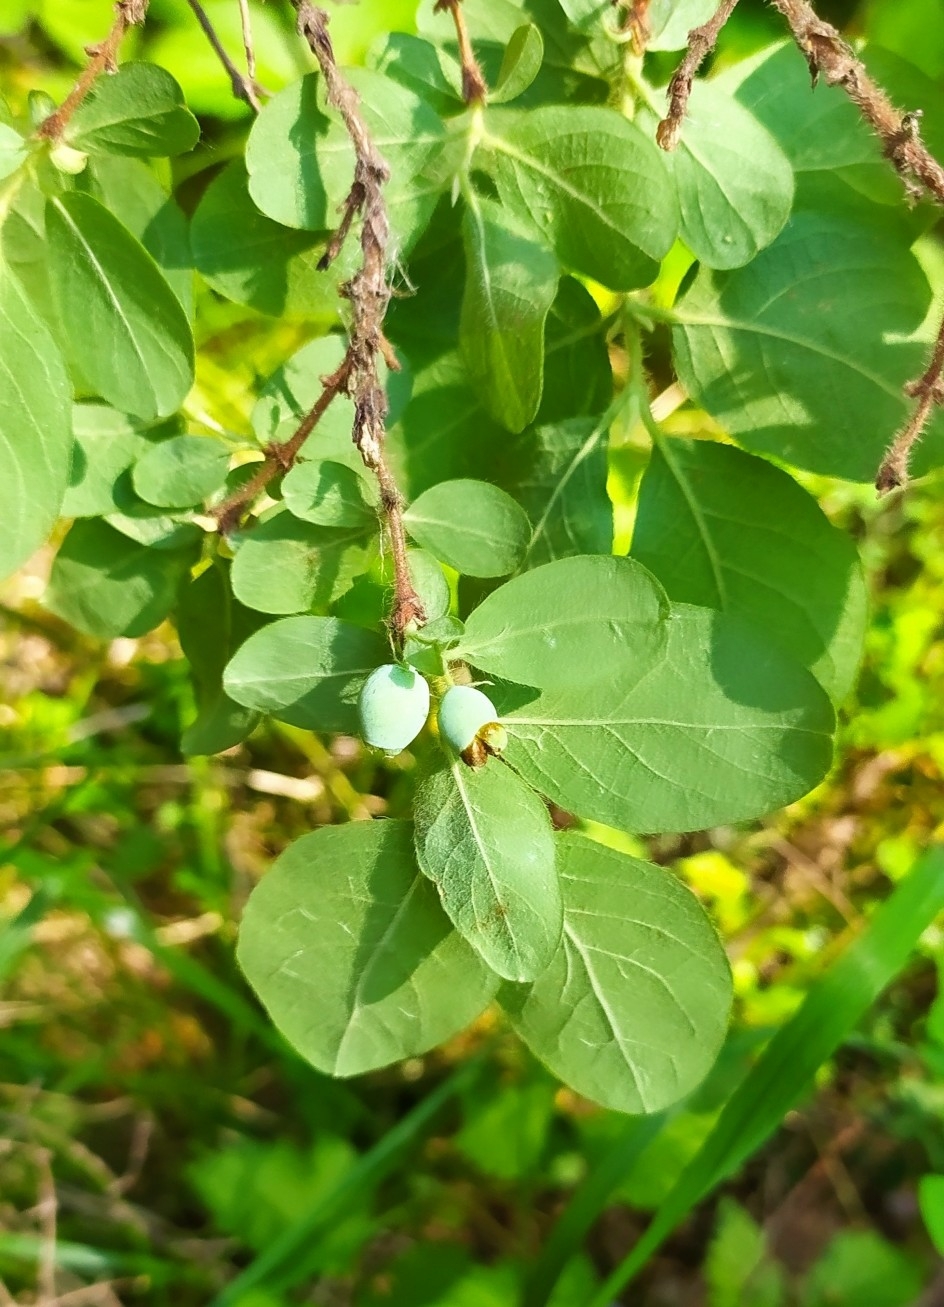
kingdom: Plantae
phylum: Tracheophyta
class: Magnoliopsida
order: Dipsacales
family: Caprifoliaceae
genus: Lonicera
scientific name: Lonicera caerulea
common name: Blue honeysuckle
